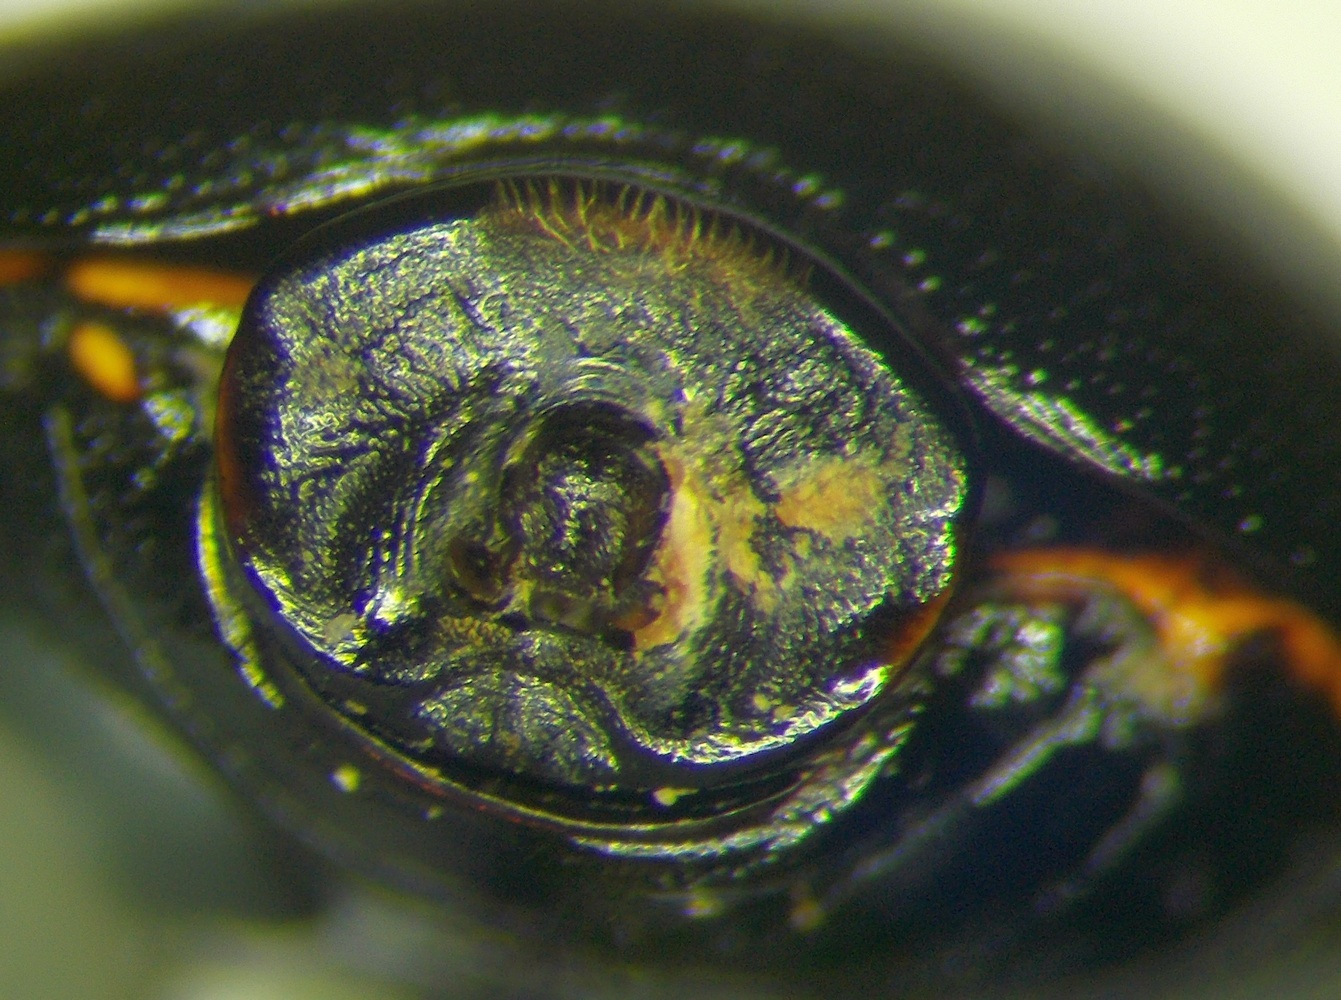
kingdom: Animalia
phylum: Arthropoda
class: Insecta
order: Hemiptera
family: Plataspidae
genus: Coptosoma
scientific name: Coptosoma scutellatum
